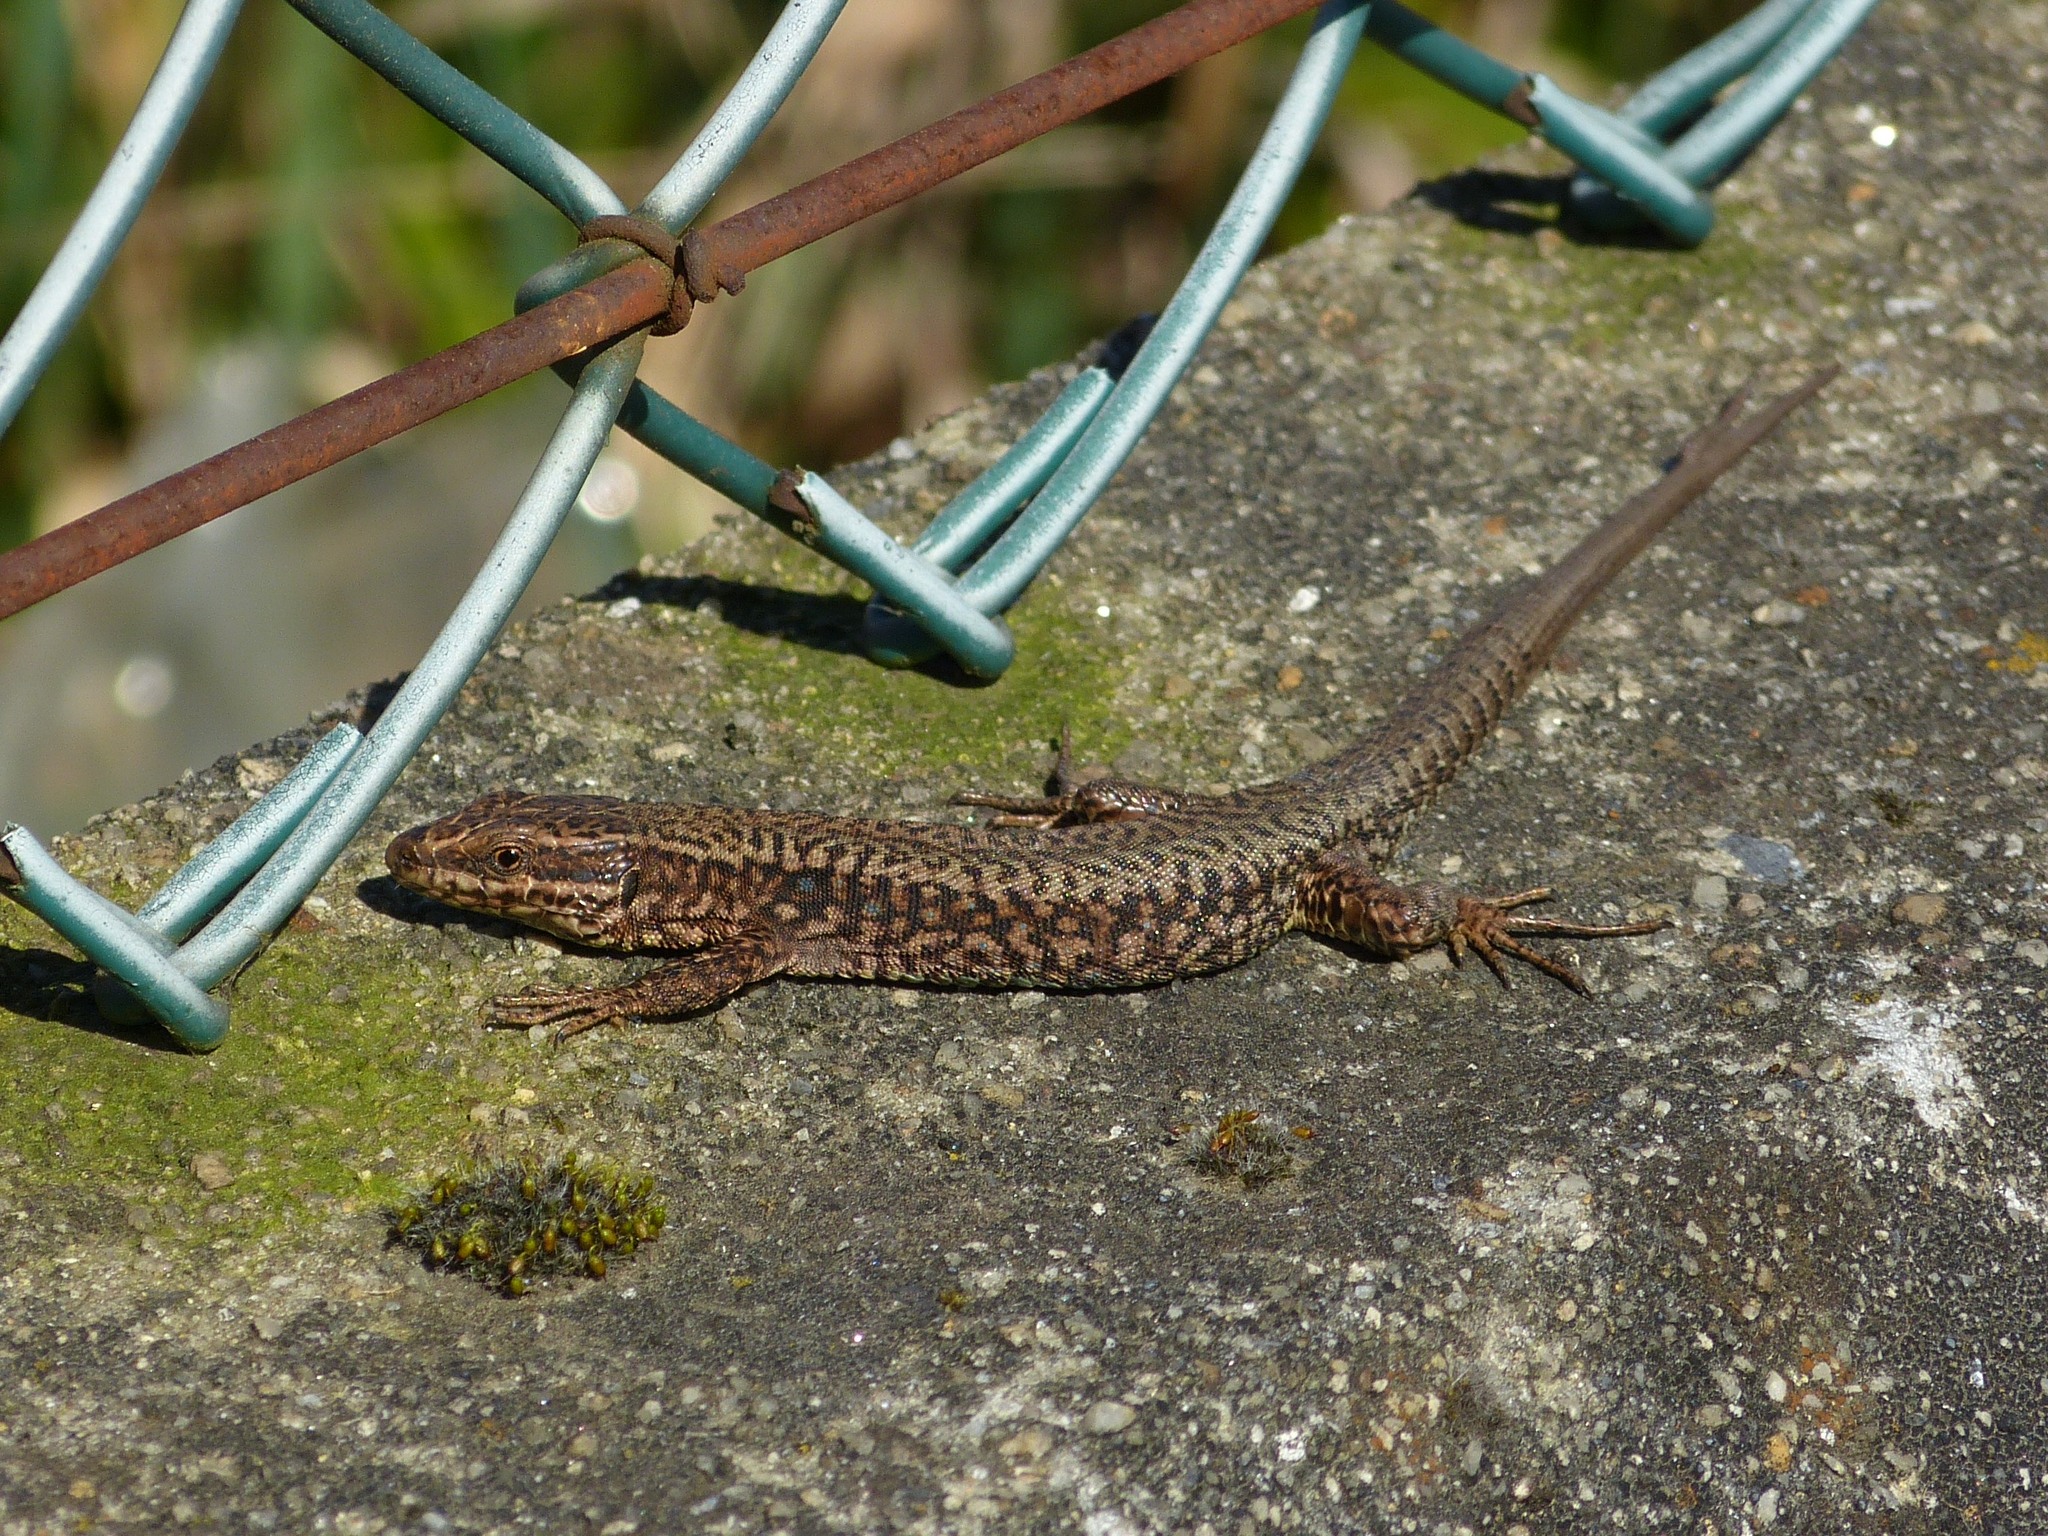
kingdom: Animalia
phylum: Chordata
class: Squamata
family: Lacertidae
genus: Podarcis
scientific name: Podarcis muralis
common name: Common wall lizard
